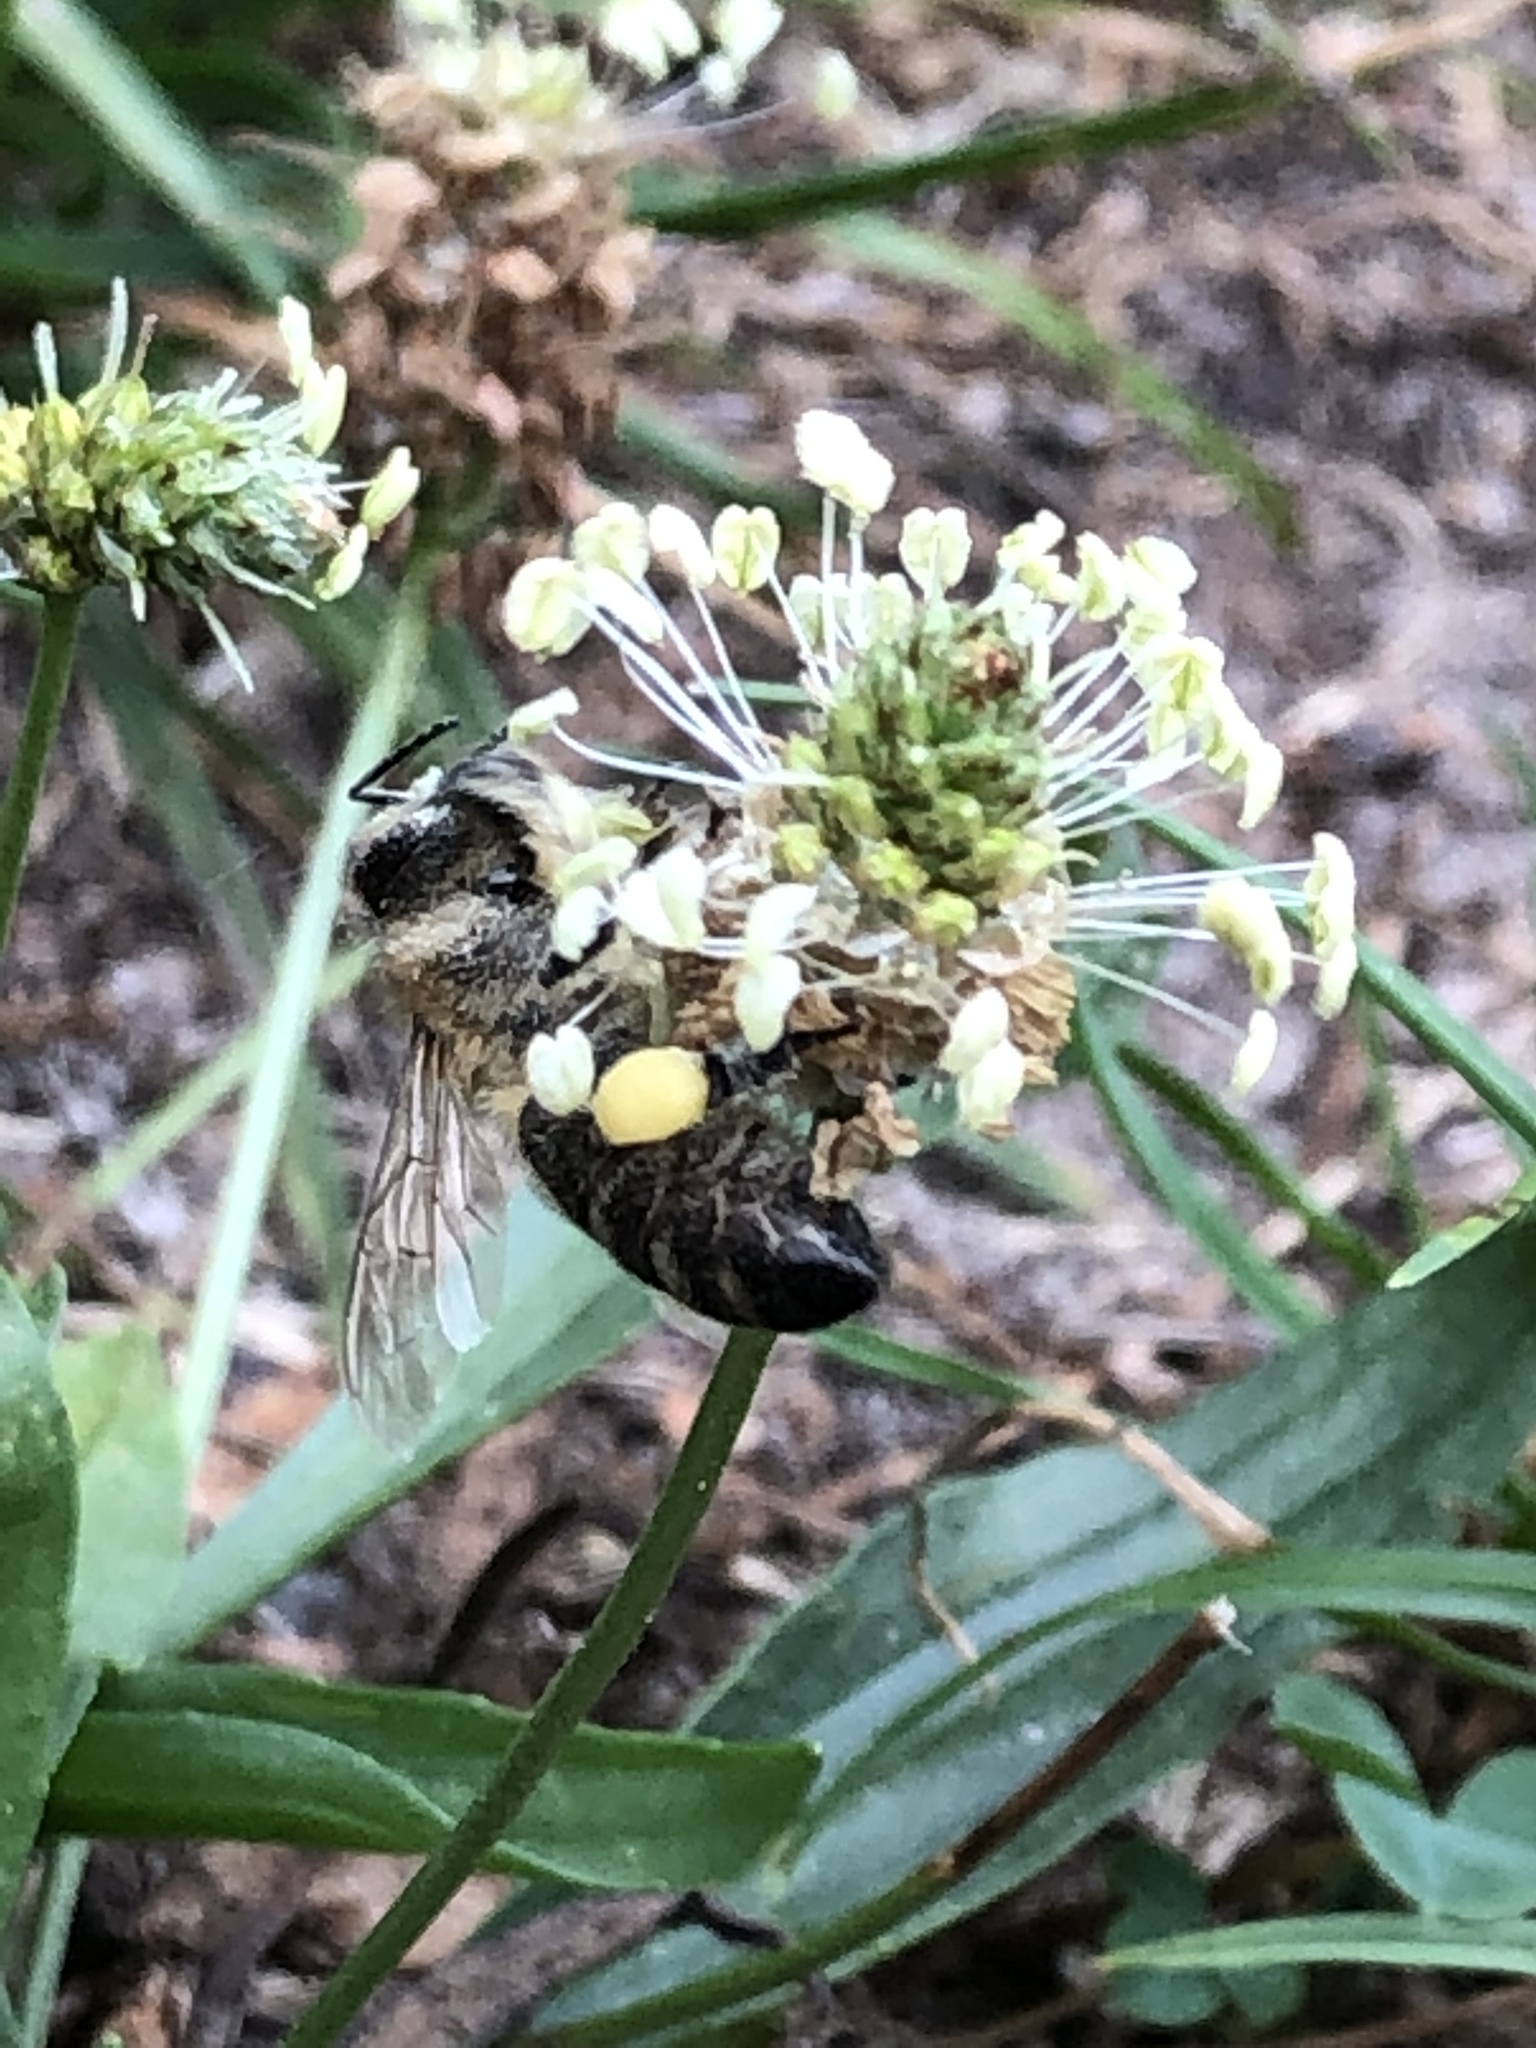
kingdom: Animalia
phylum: Arthropoda
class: Insecta
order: Hymenoptera
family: Apidae
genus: Apis
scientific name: Apis mellifera
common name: Honey bee
